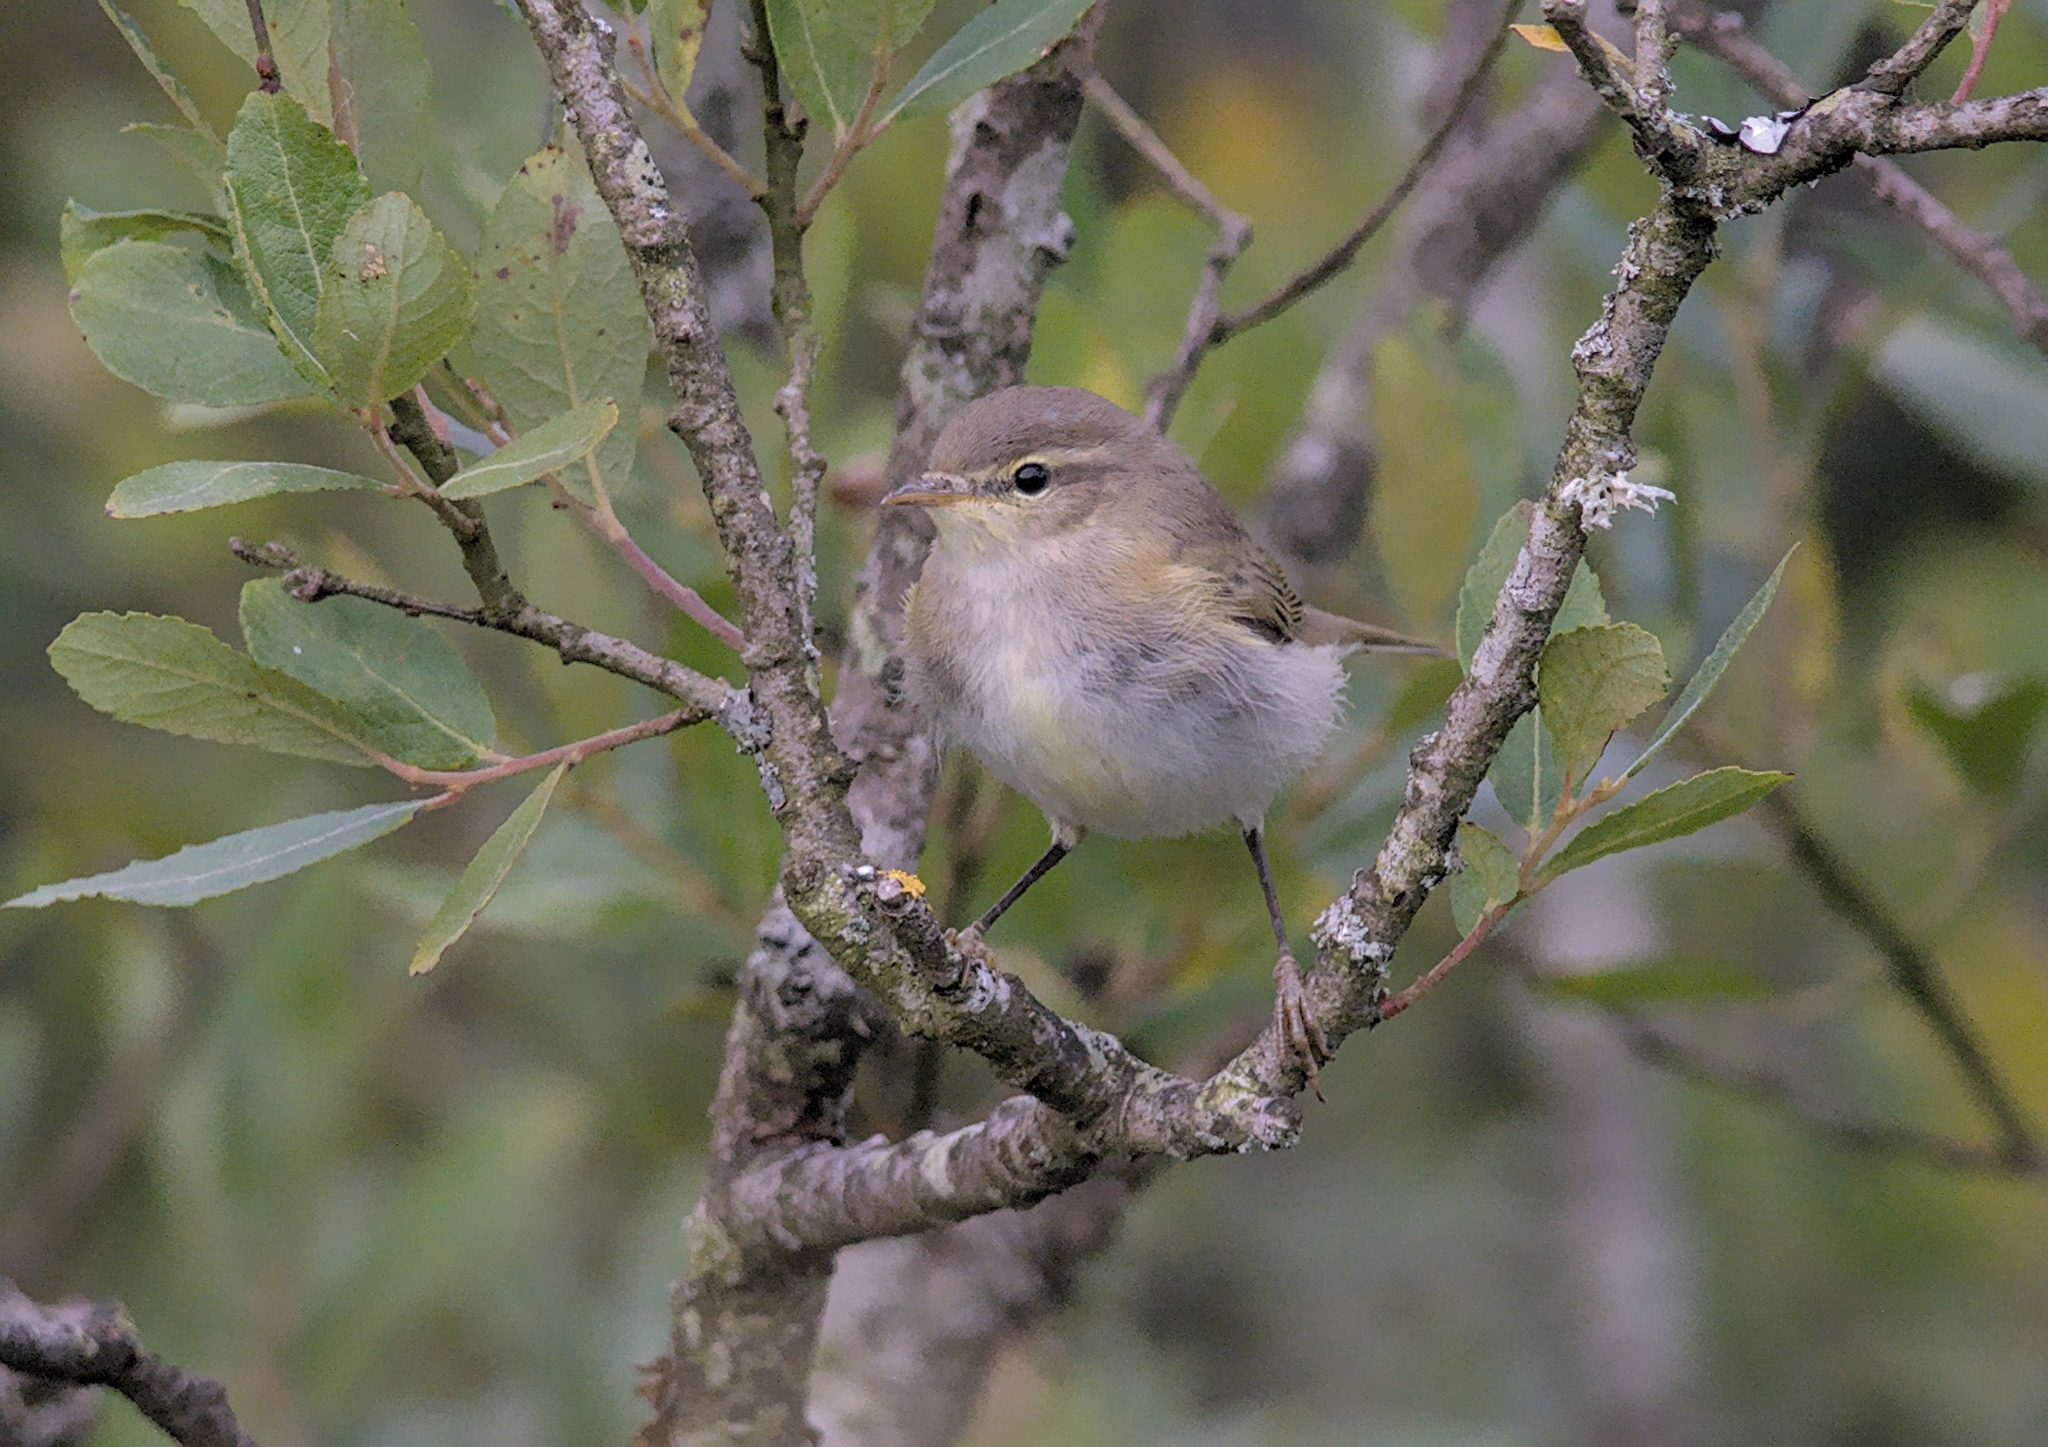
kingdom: Animalia
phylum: Chordata
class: Aves
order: Passeriformes
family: Phylloscopidae
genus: Phylloscopus
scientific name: Phylloscopus collybita
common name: Common chiffchaff
